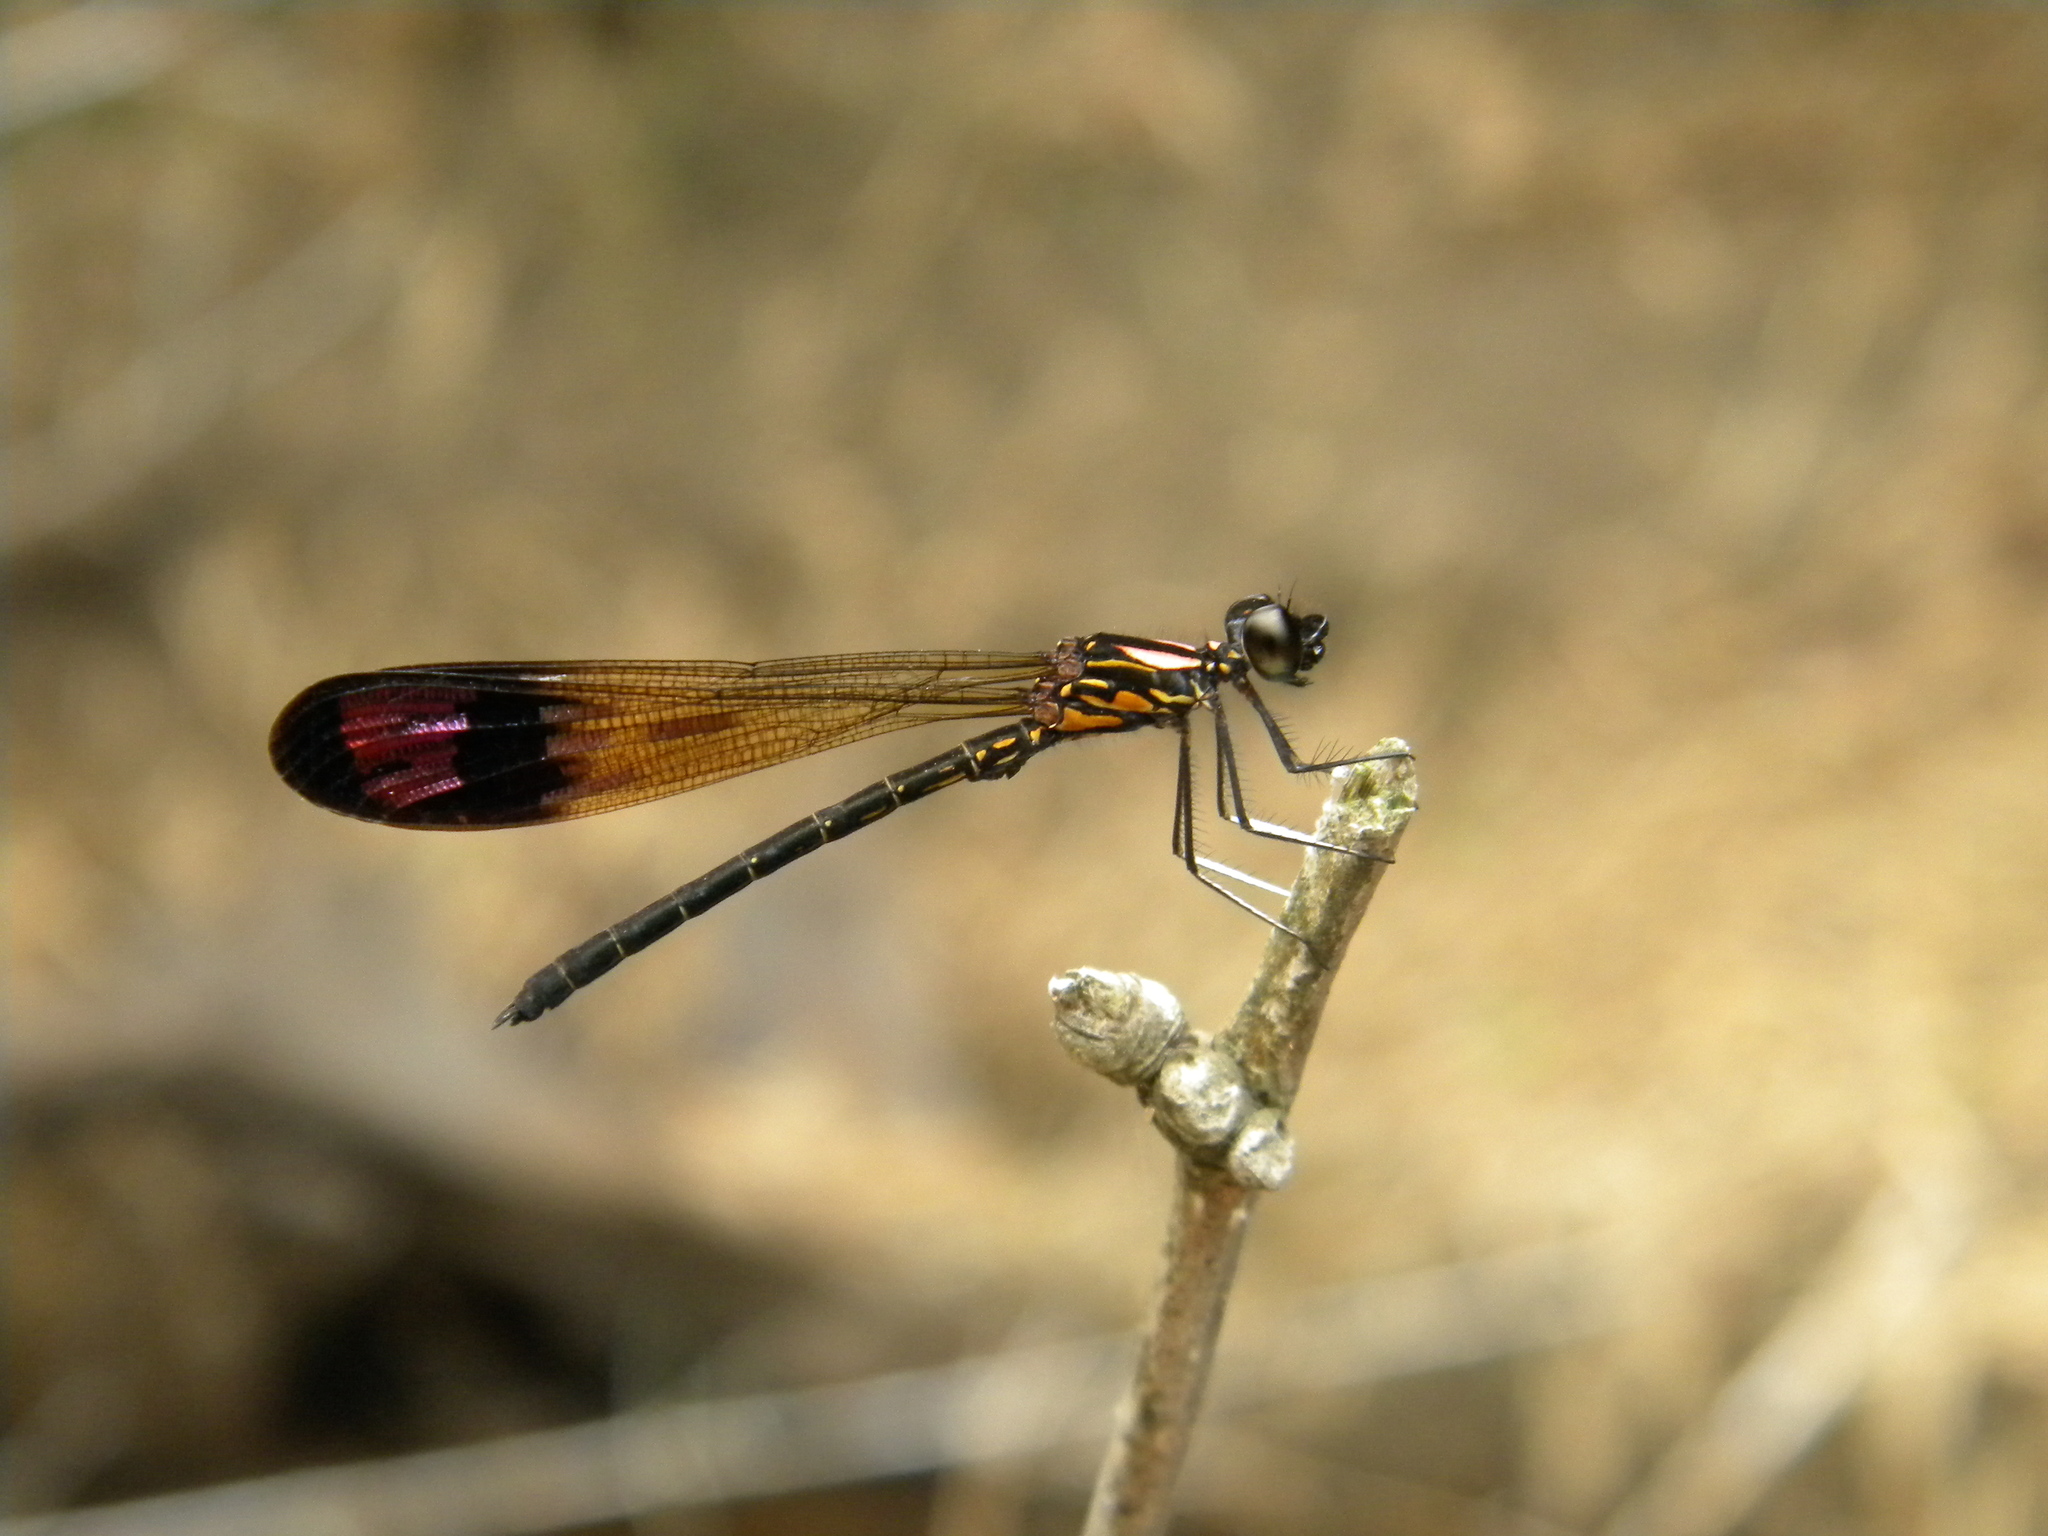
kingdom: Animalia
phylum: Arthropoda
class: Insecta
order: Odonata
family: Chlorocyphidae
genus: Heliocypha
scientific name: Heliocypha bisignata
